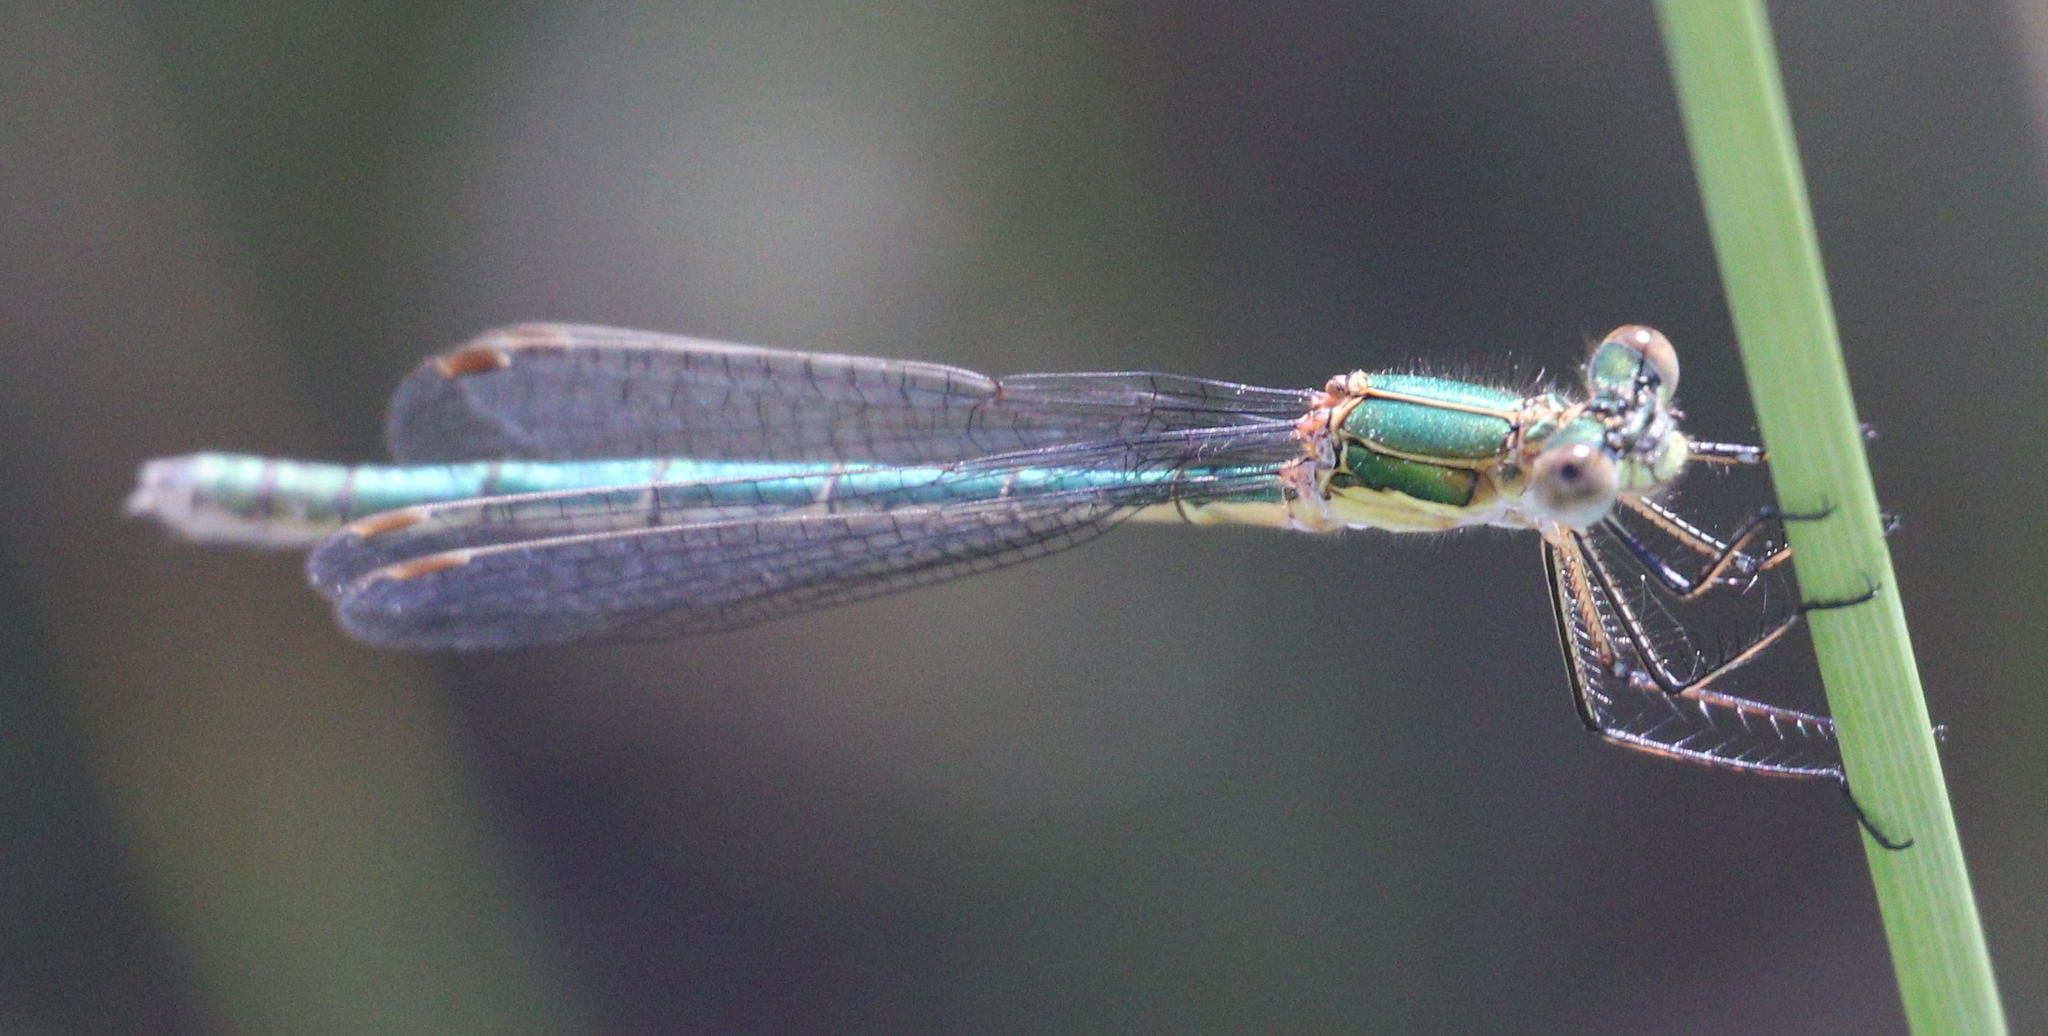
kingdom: Animalia
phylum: Arthropoda
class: Insecta
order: Odonata
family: Lestidae
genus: Lestes
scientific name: Lestes sponsa
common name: Common spreadwing
